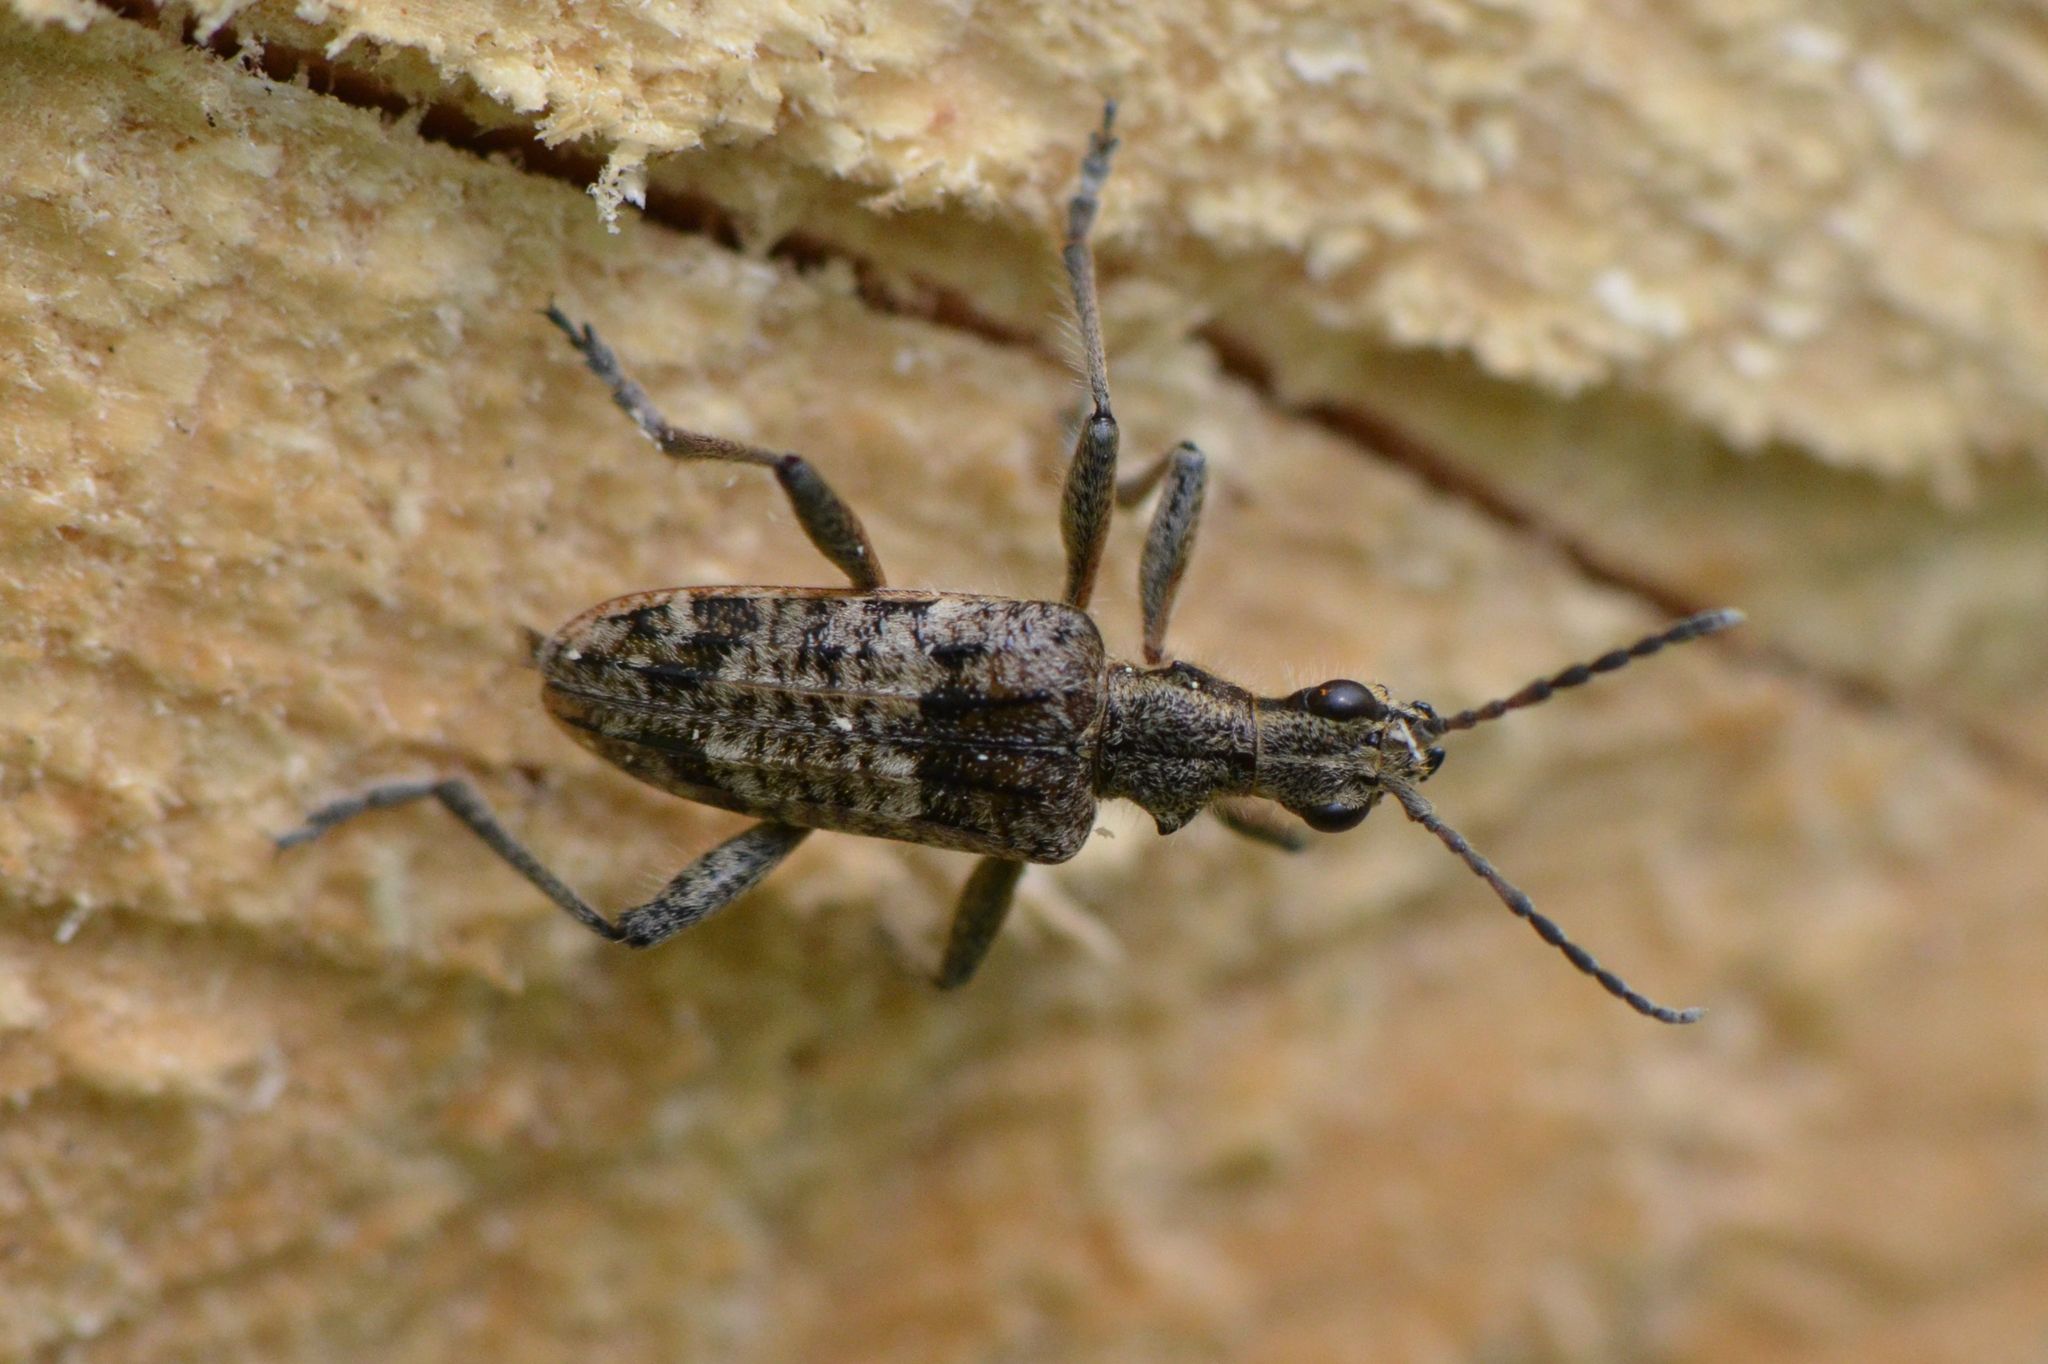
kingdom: Animalia
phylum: Arthropoda
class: Insecta
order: Coleoptera
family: Cerambycidae
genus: Rhagium
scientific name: Rhagium inquisitor
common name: Ribbed pine borer
